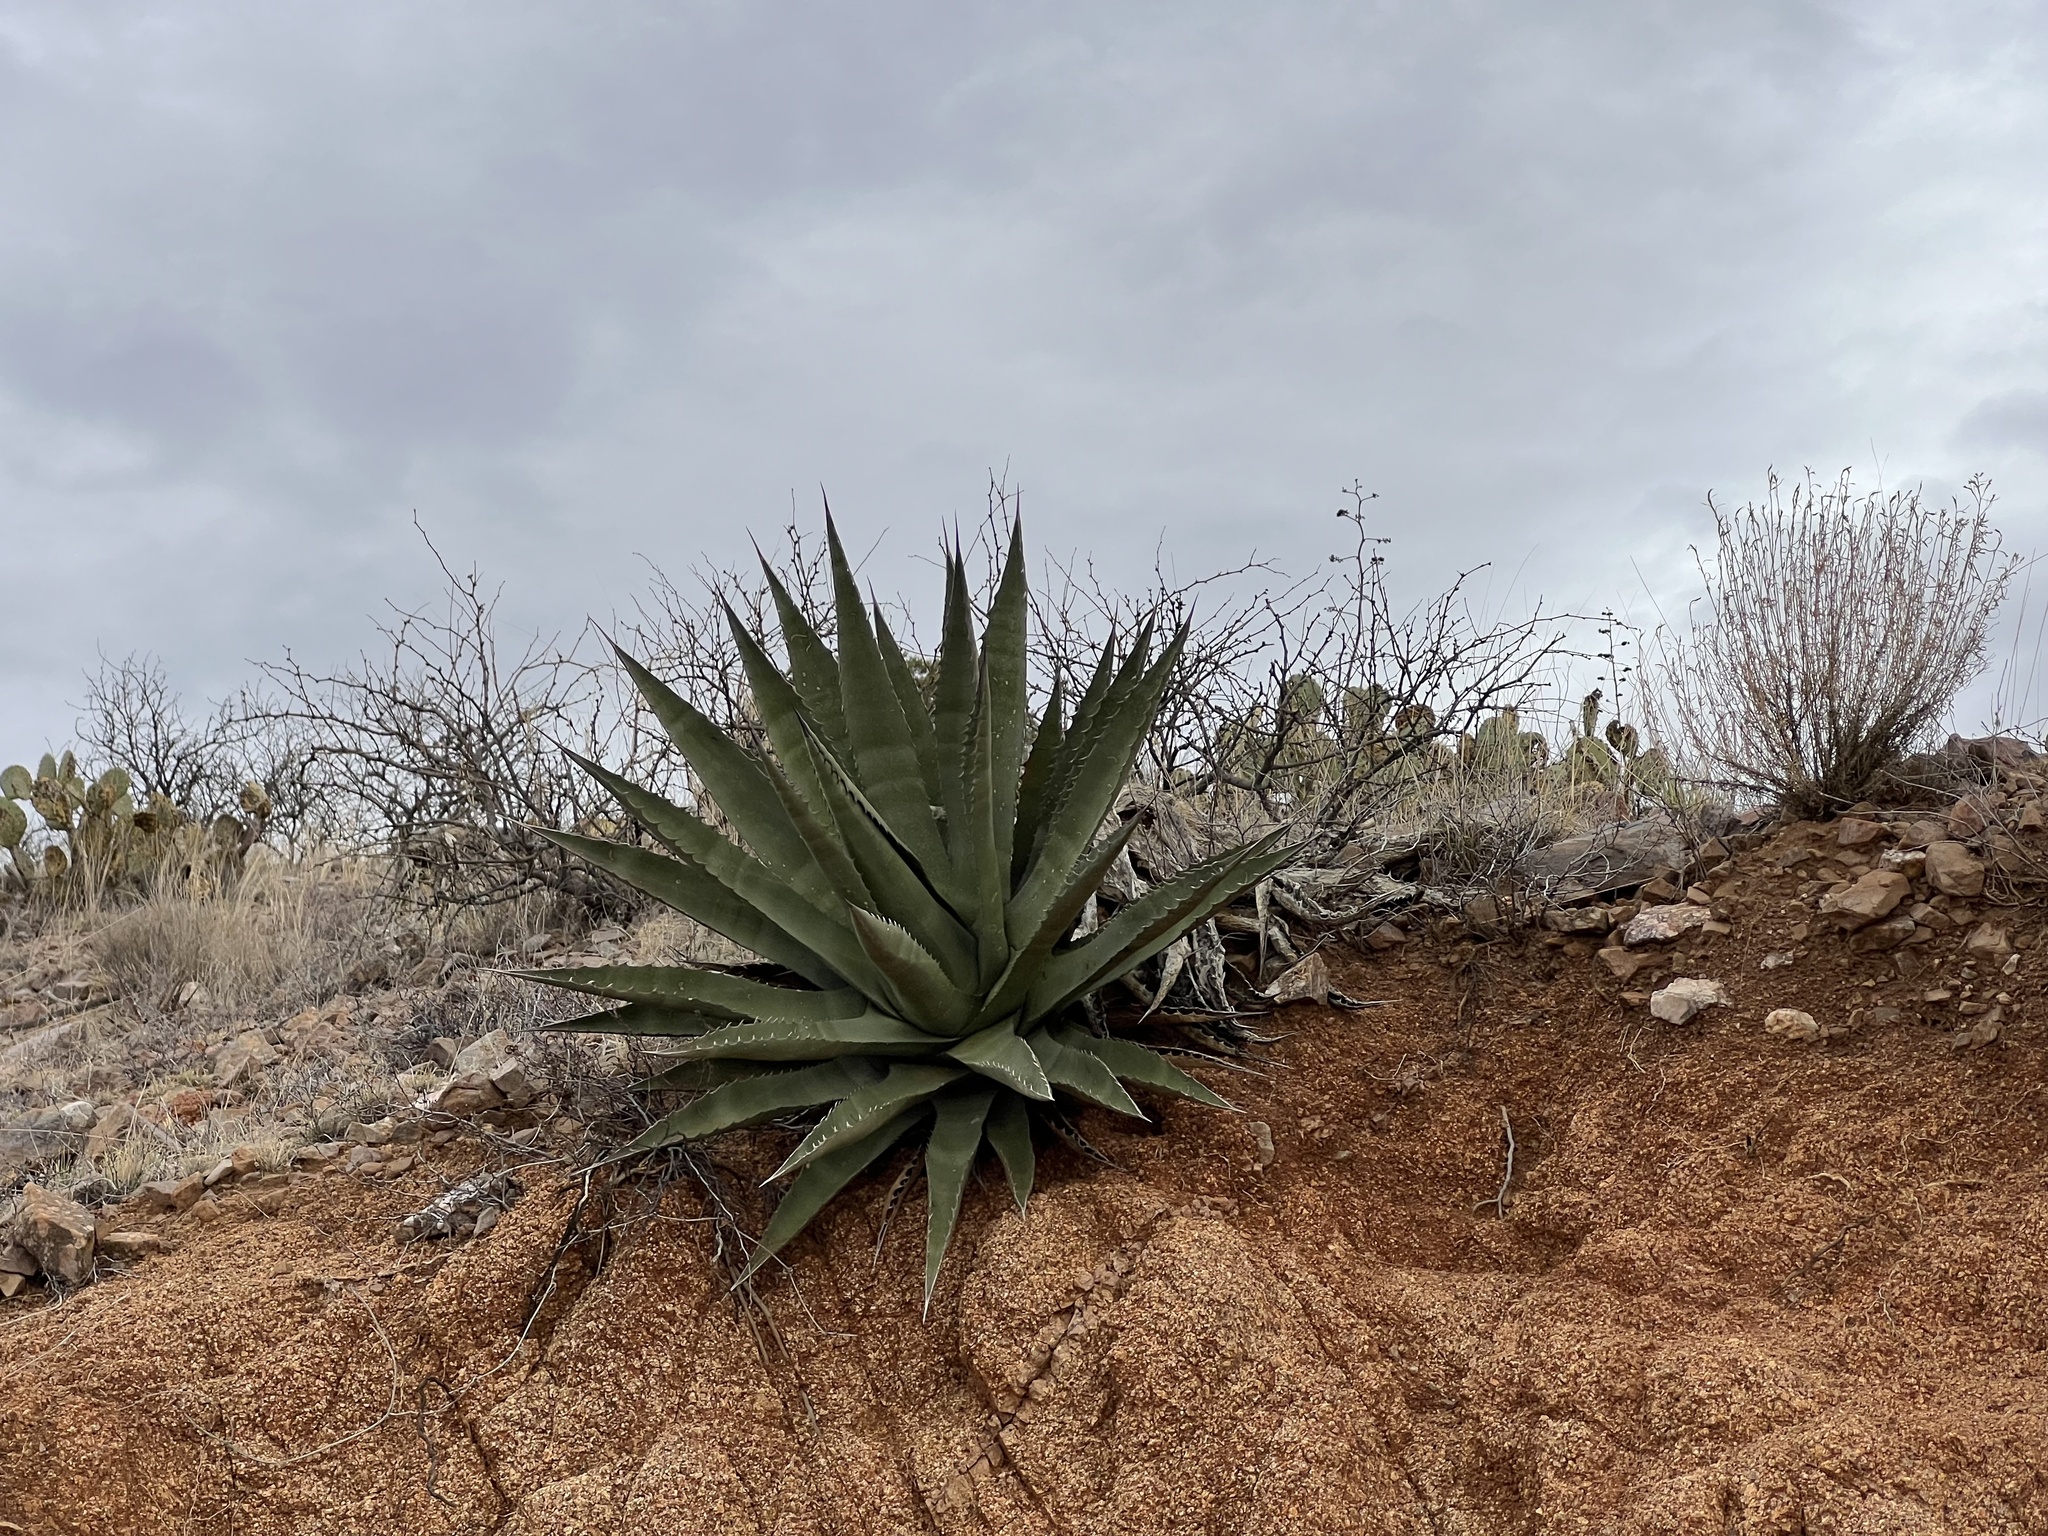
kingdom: Plantae
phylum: Tracheophyta
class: Liliopsida
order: Asparagales
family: Asparagaceae
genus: Agave
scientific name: Agave palmeri
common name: Palmer agave
